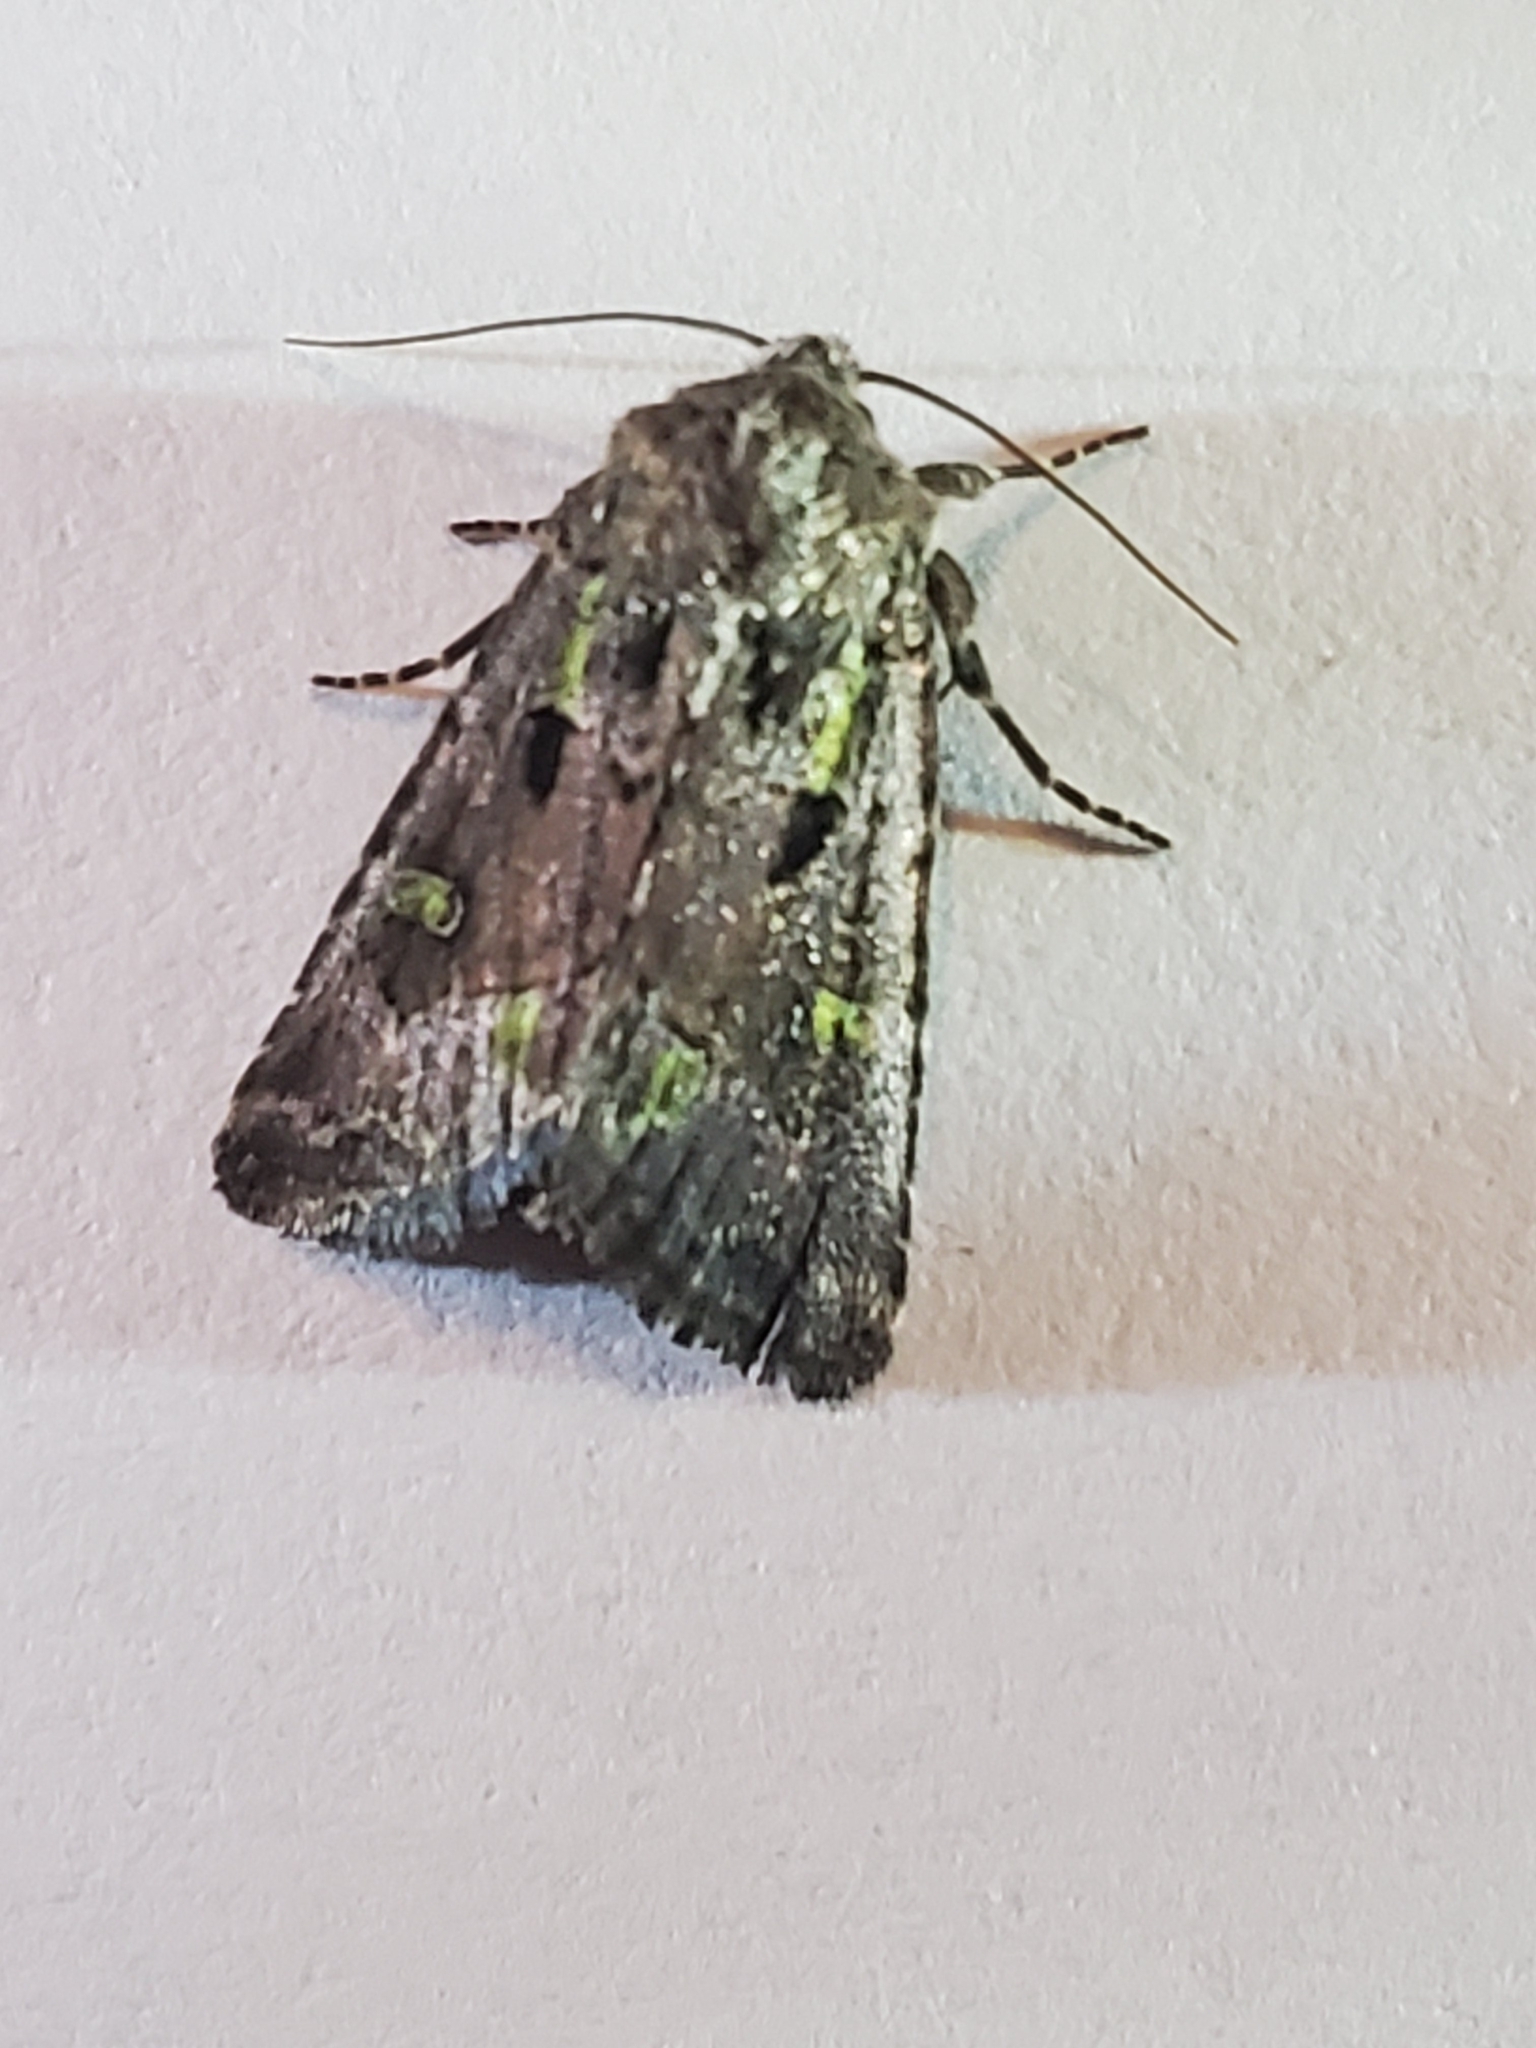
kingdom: Animalia
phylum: Arthropoda
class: Insecta
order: Lepidoptera
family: Noctuidae
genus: Lacinipolia
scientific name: Lacinipolia renigera
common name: Kidney-spotted minor
